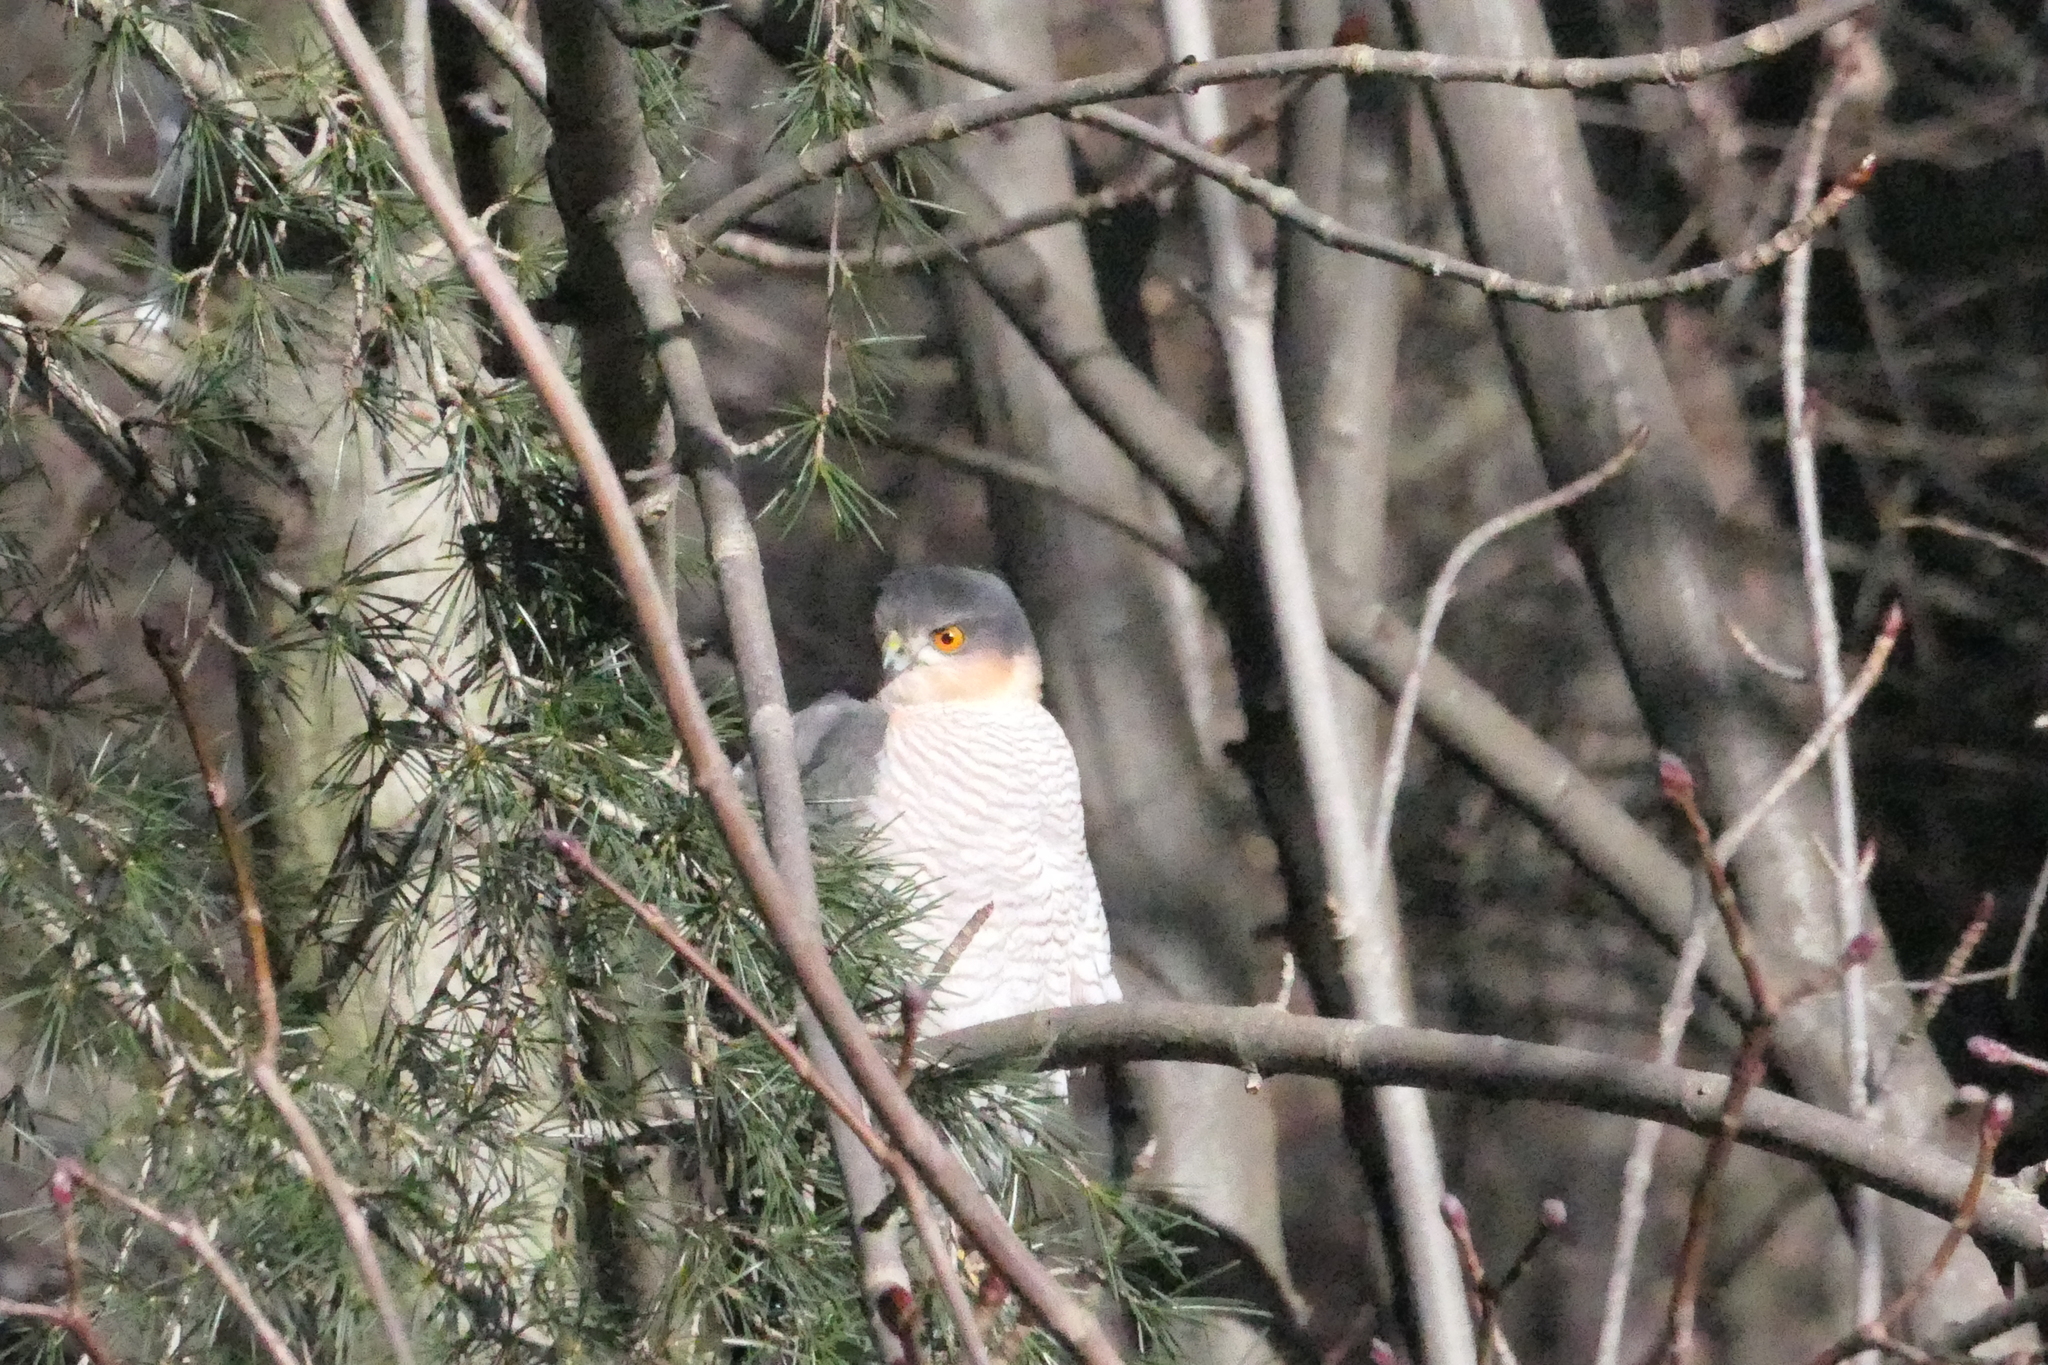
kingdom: Animalia
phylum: Chordata
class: Aves
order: Accipitriformes
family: Accipitridae
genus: Accipiter
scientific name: Accipiter nisus
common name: Eurasian sparrowhawk
